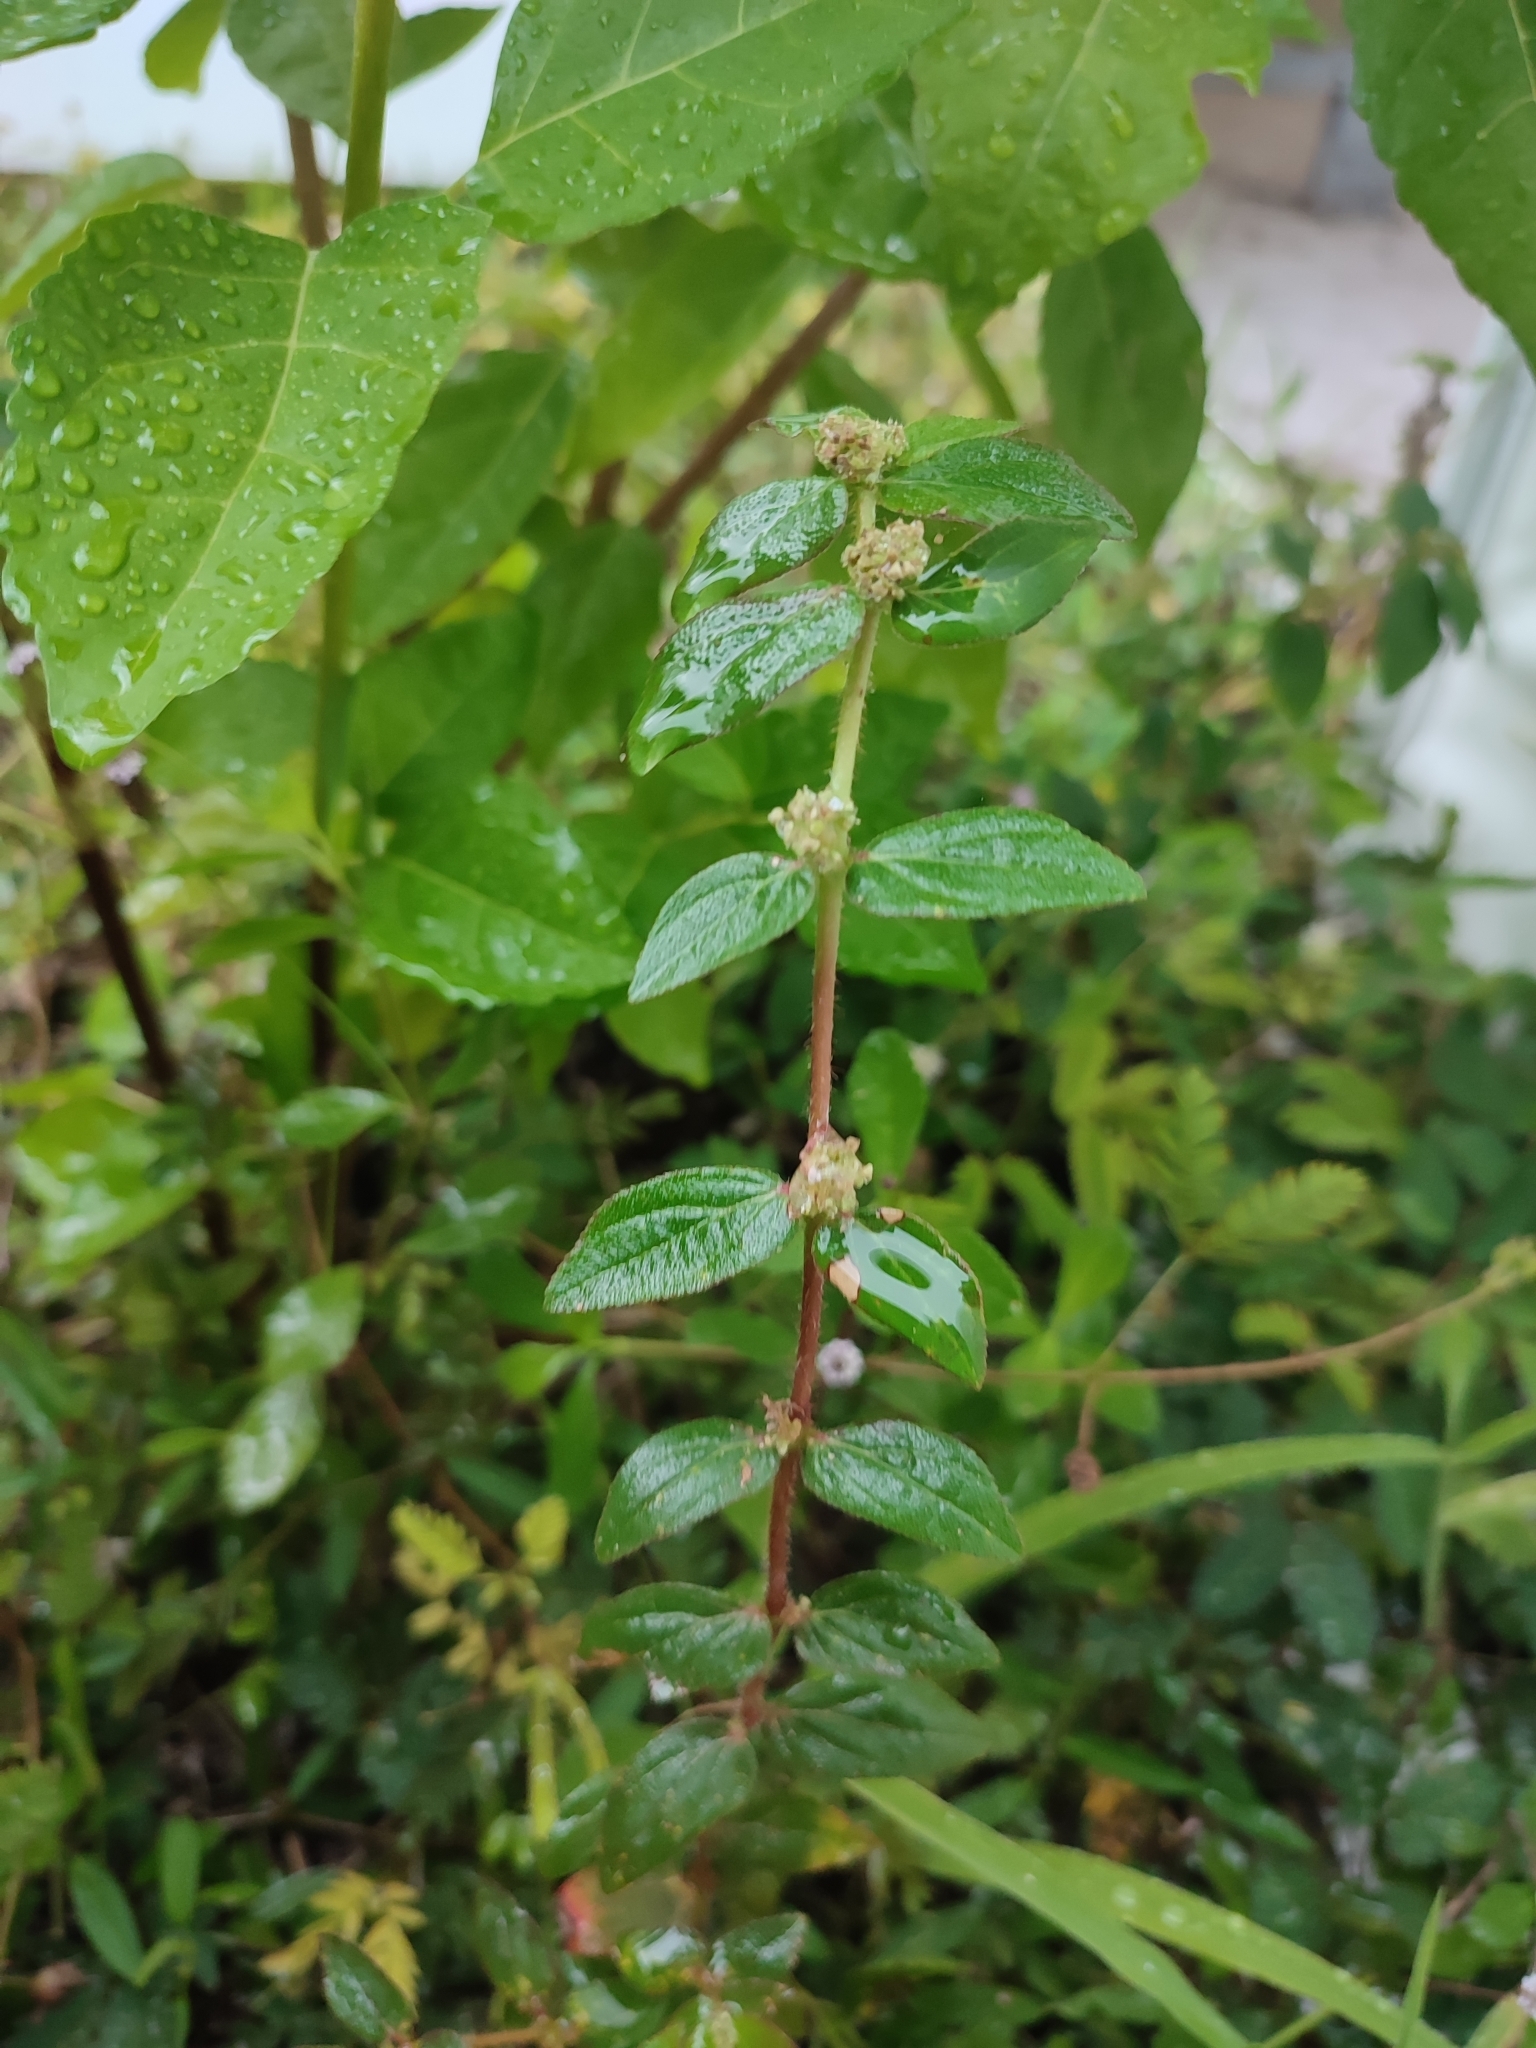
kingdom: Plantae
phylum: Tracheophyta
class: Magnoliopsida
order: Malpighiales
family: Euphorbiaceae
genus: Euphorbia
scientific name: Euphorbia hirta
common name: Pillpod sandmat
